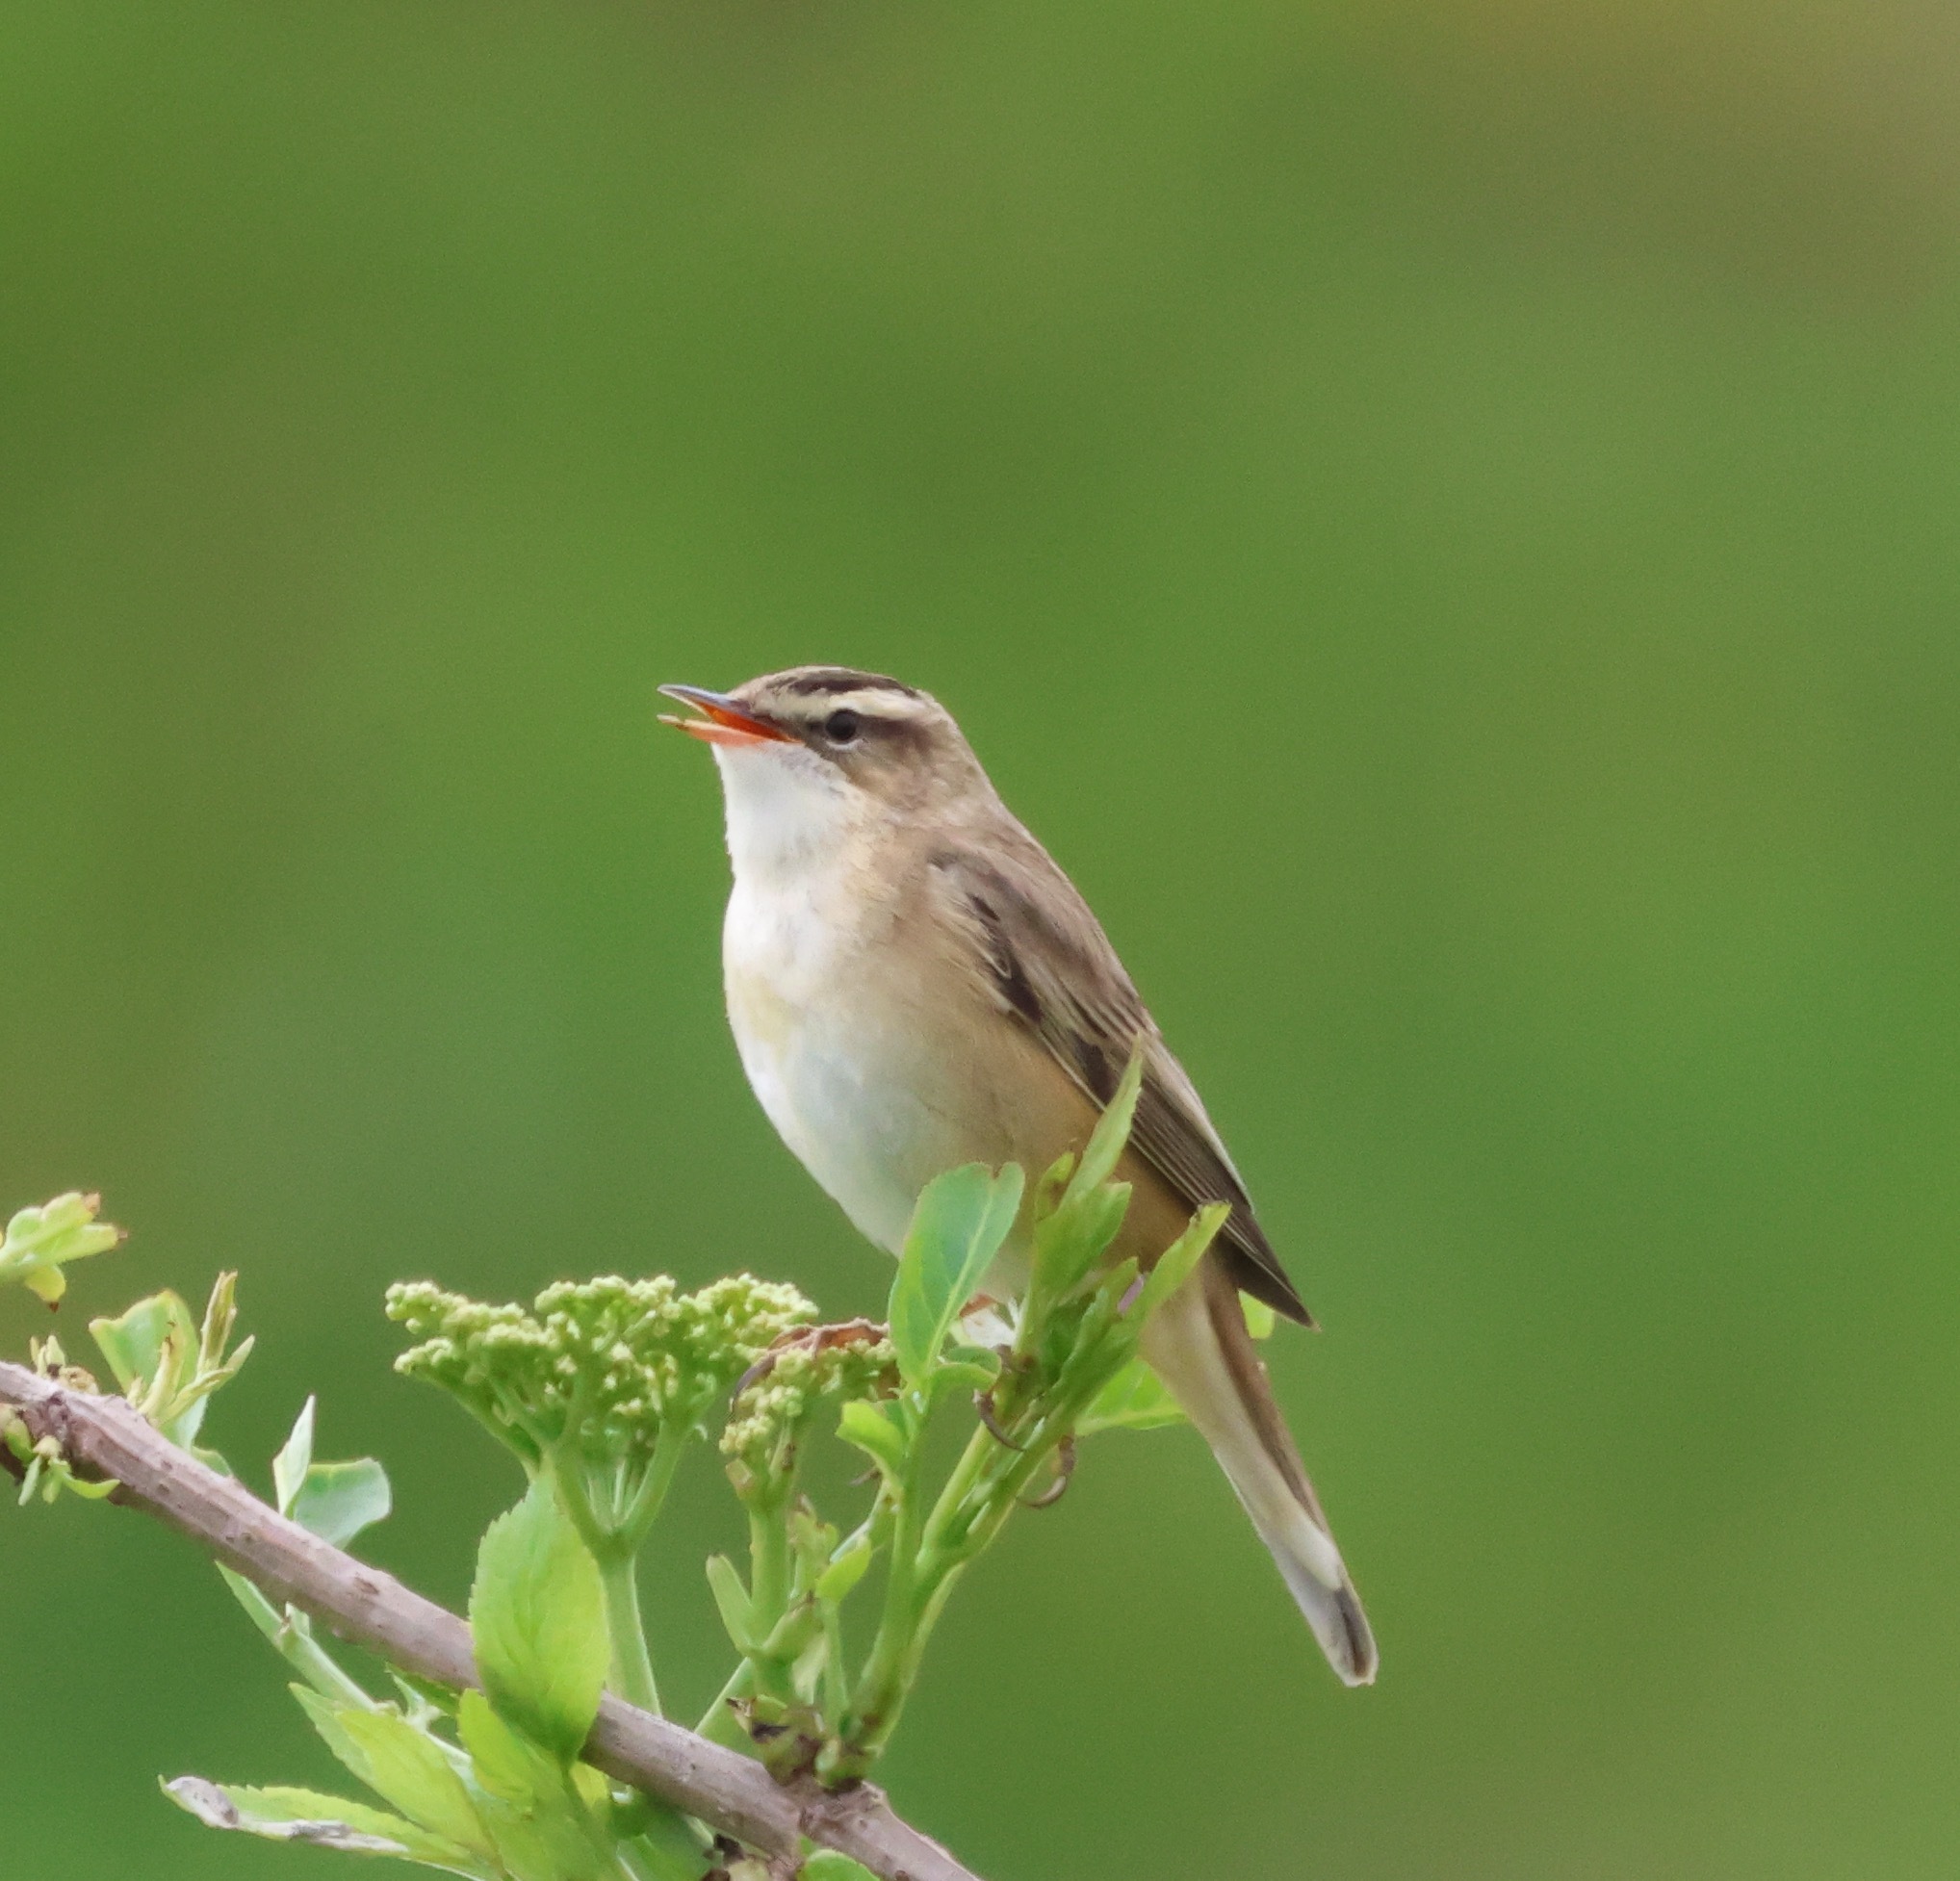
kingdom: Animalia
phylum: Chordata
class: Aves
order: Passeriformes
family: Acrocephalidae
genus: Acrocephalus
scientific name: Acrocephalus schoenobaenus
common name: Sedge warbler
